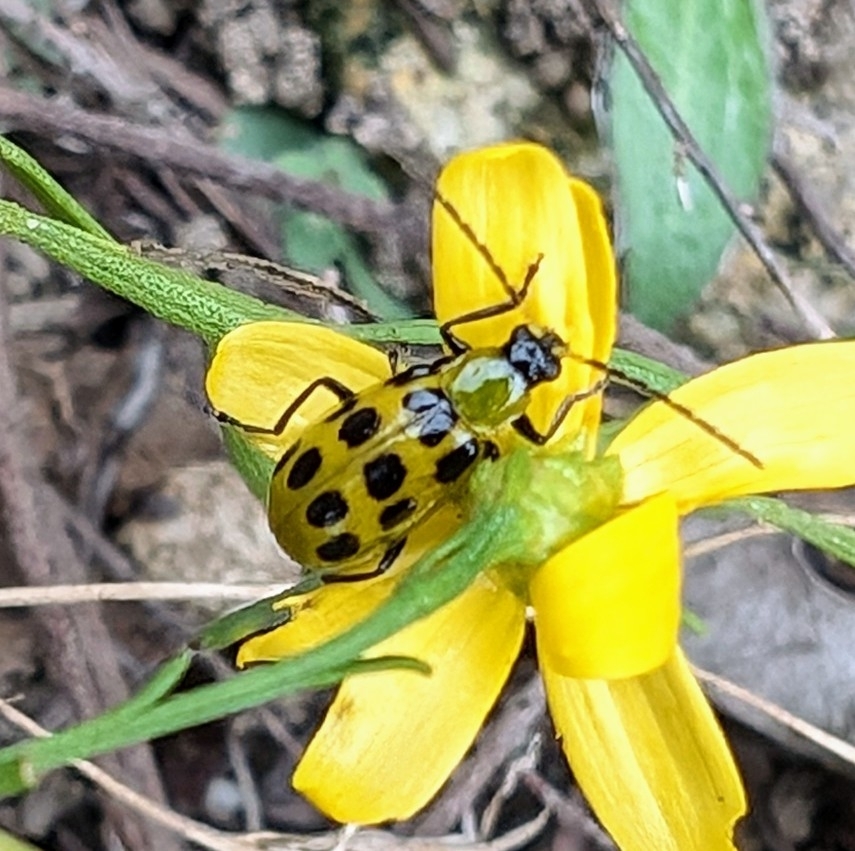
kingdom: Animalia
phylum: Arthropoda
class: Insecta
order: Coleoptera
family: Chrysomelidae
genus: Diabrotica
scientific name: Diabrotica undecimpunctata
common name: Spotted cucumber beetle
